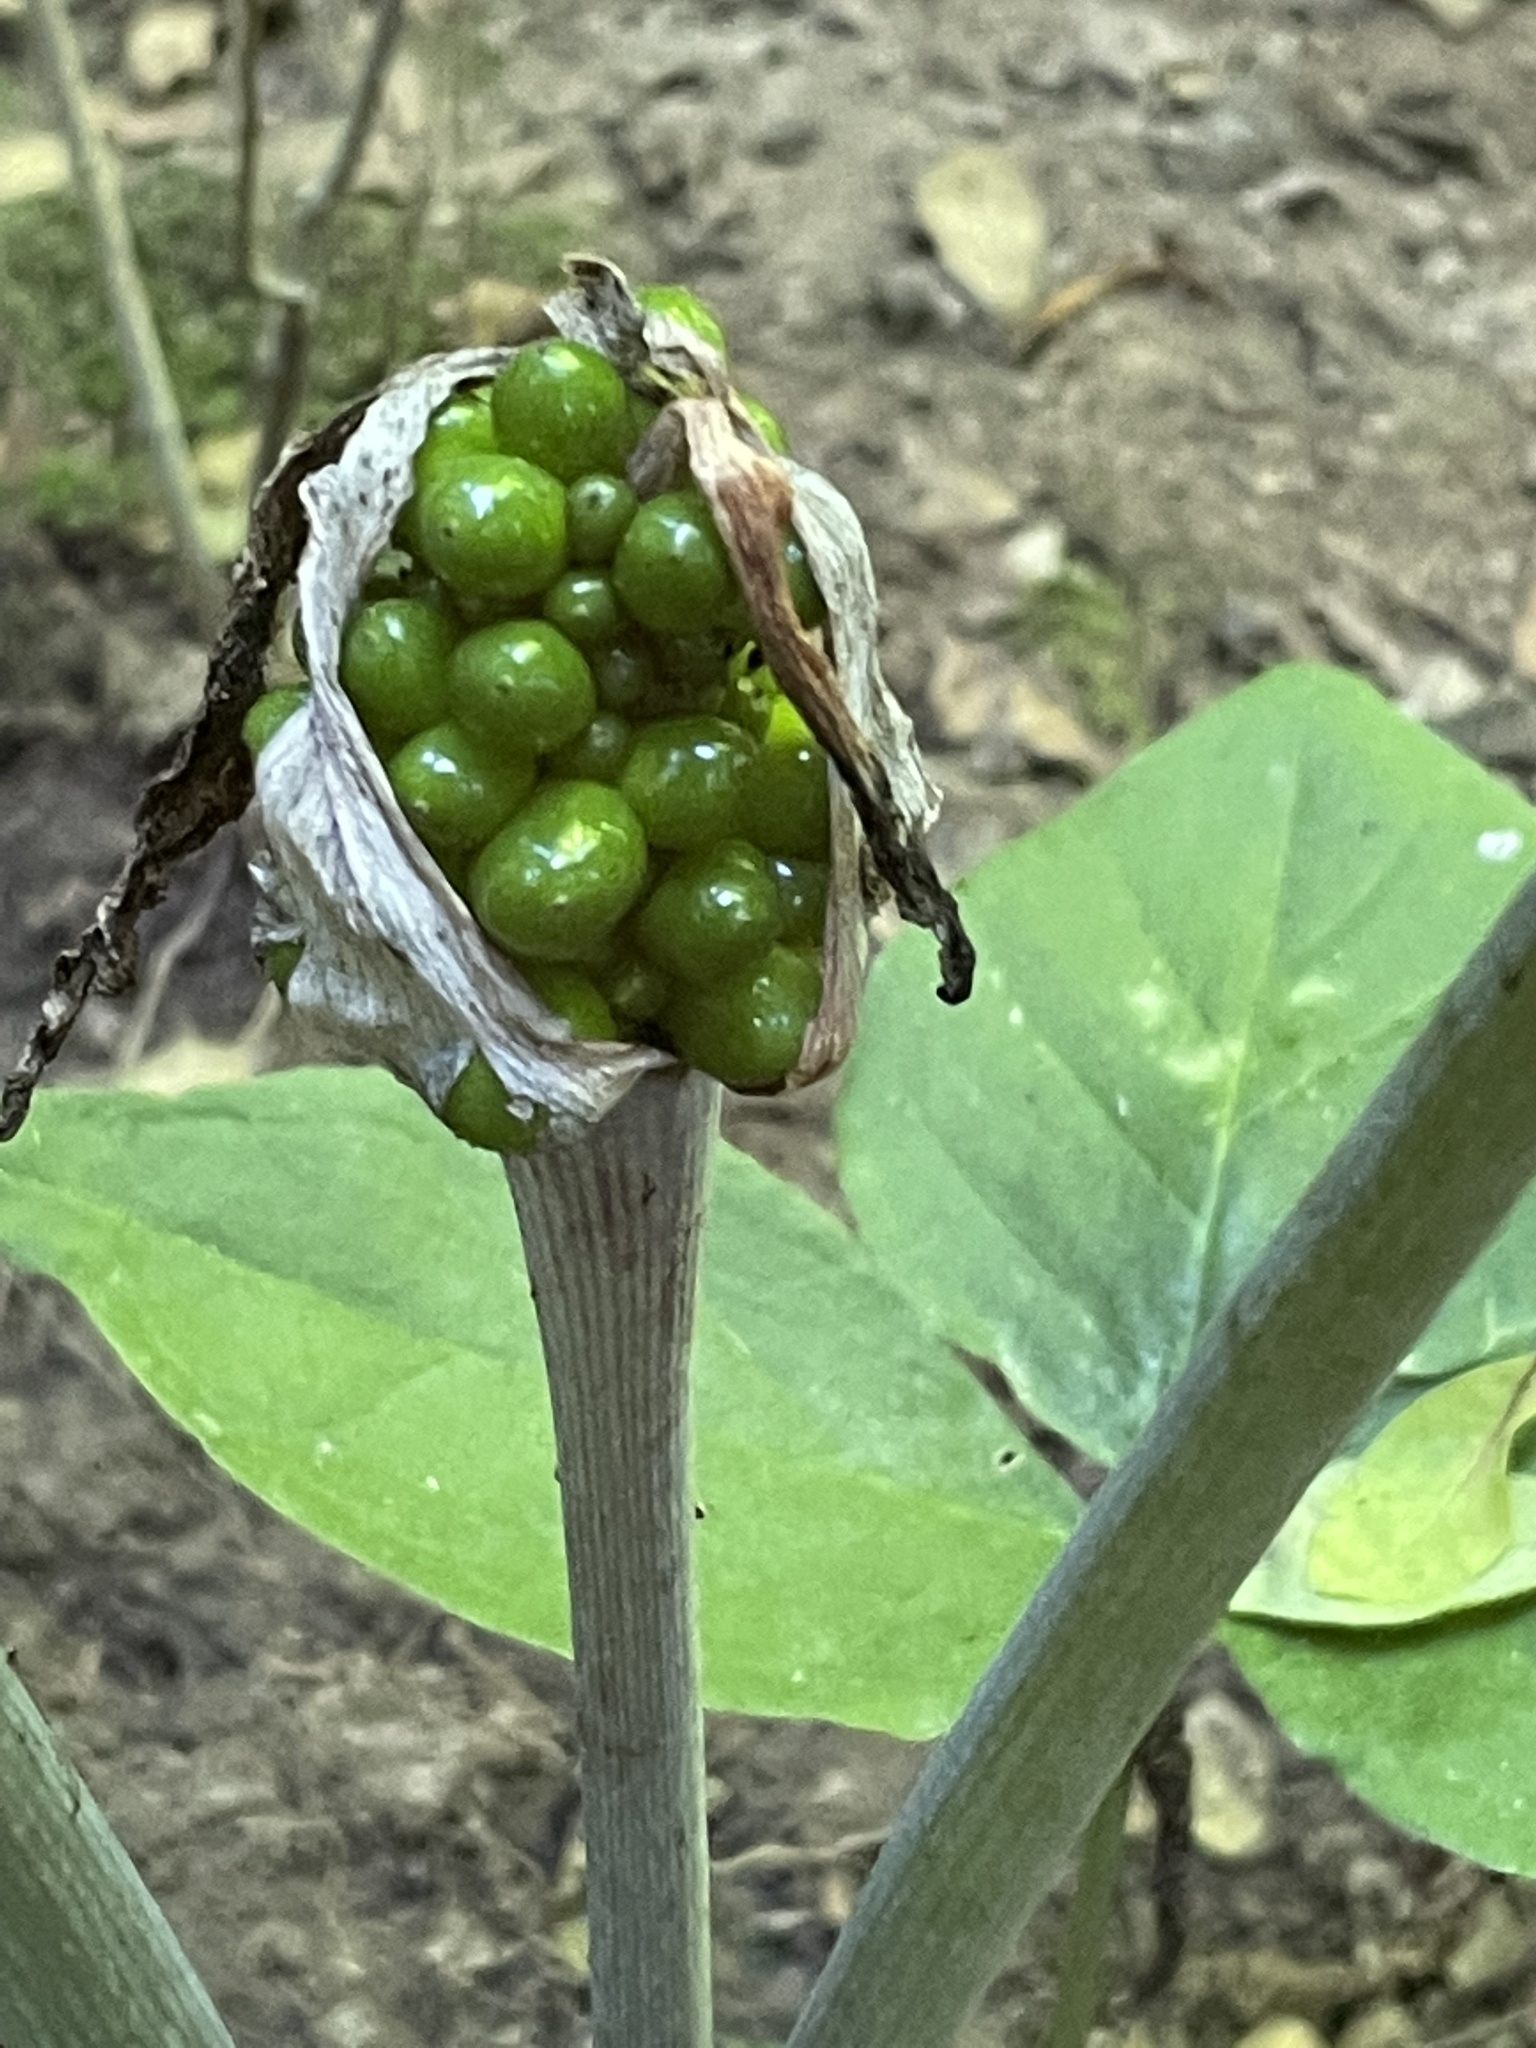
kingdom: Plantae
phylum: Tracheophyta
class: Liliopsida
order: Alismatales
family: Araceae
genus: Arisaema
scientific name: Arisaema triphyllum
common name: Jack-in-the-pulpit
